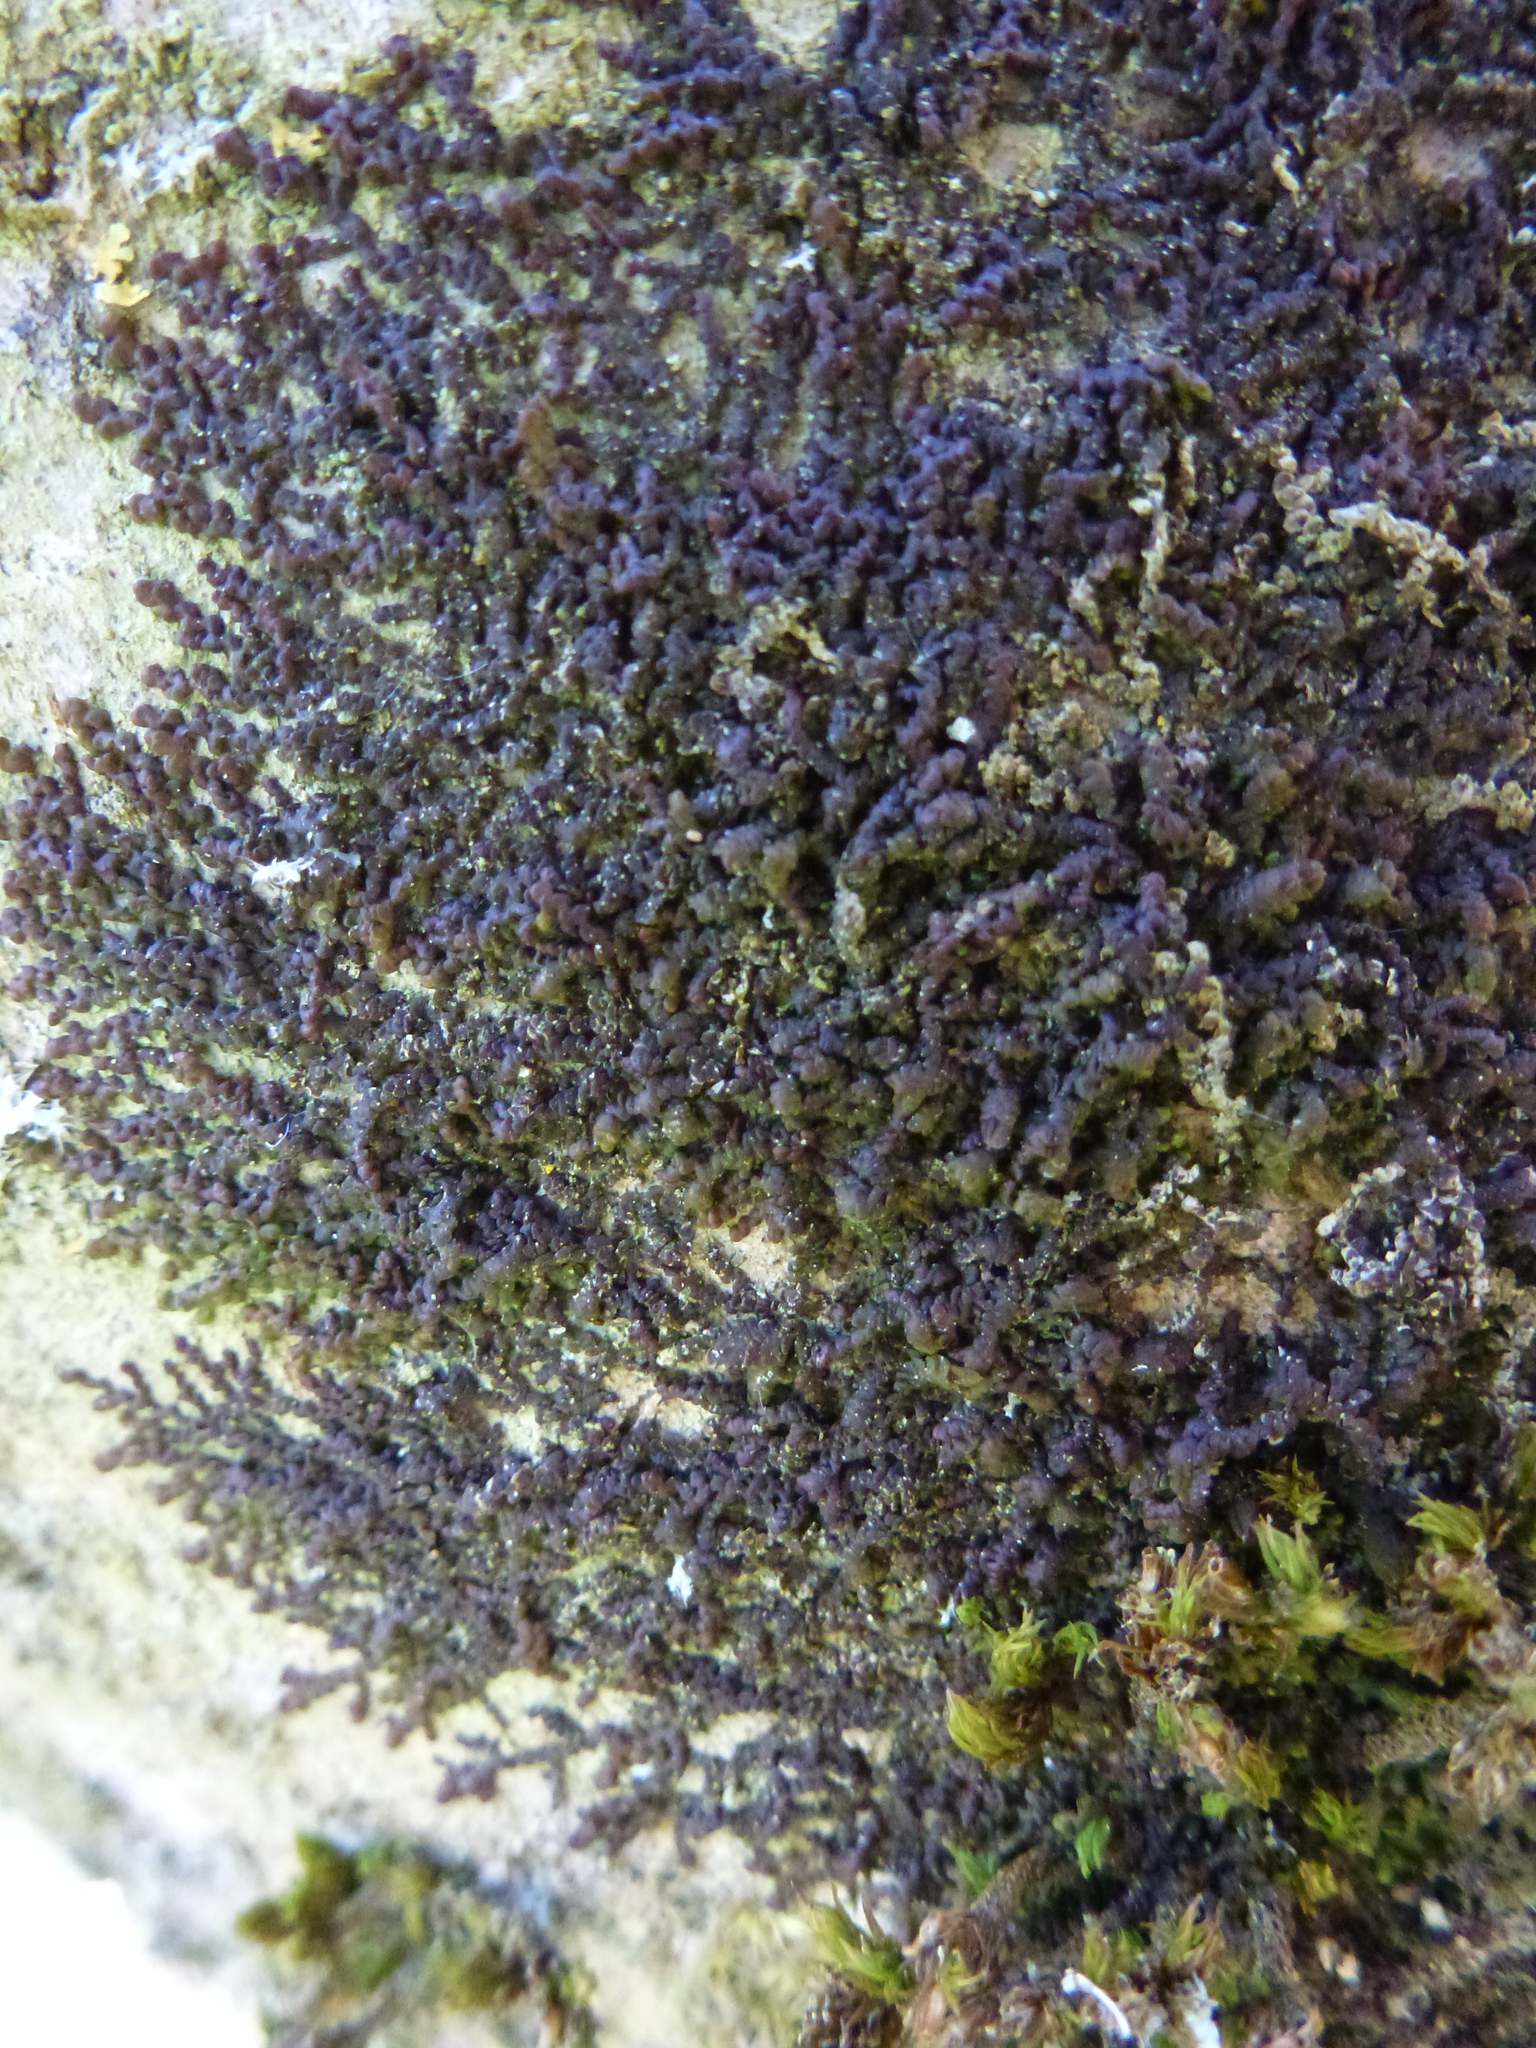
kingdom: Plantae
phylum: Marchantiophyta
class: Jungermanniopsida
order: Porellales
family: Frullaniaceae
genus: Frullania
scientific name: Frullania dilatata
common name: Dilated scalewort
